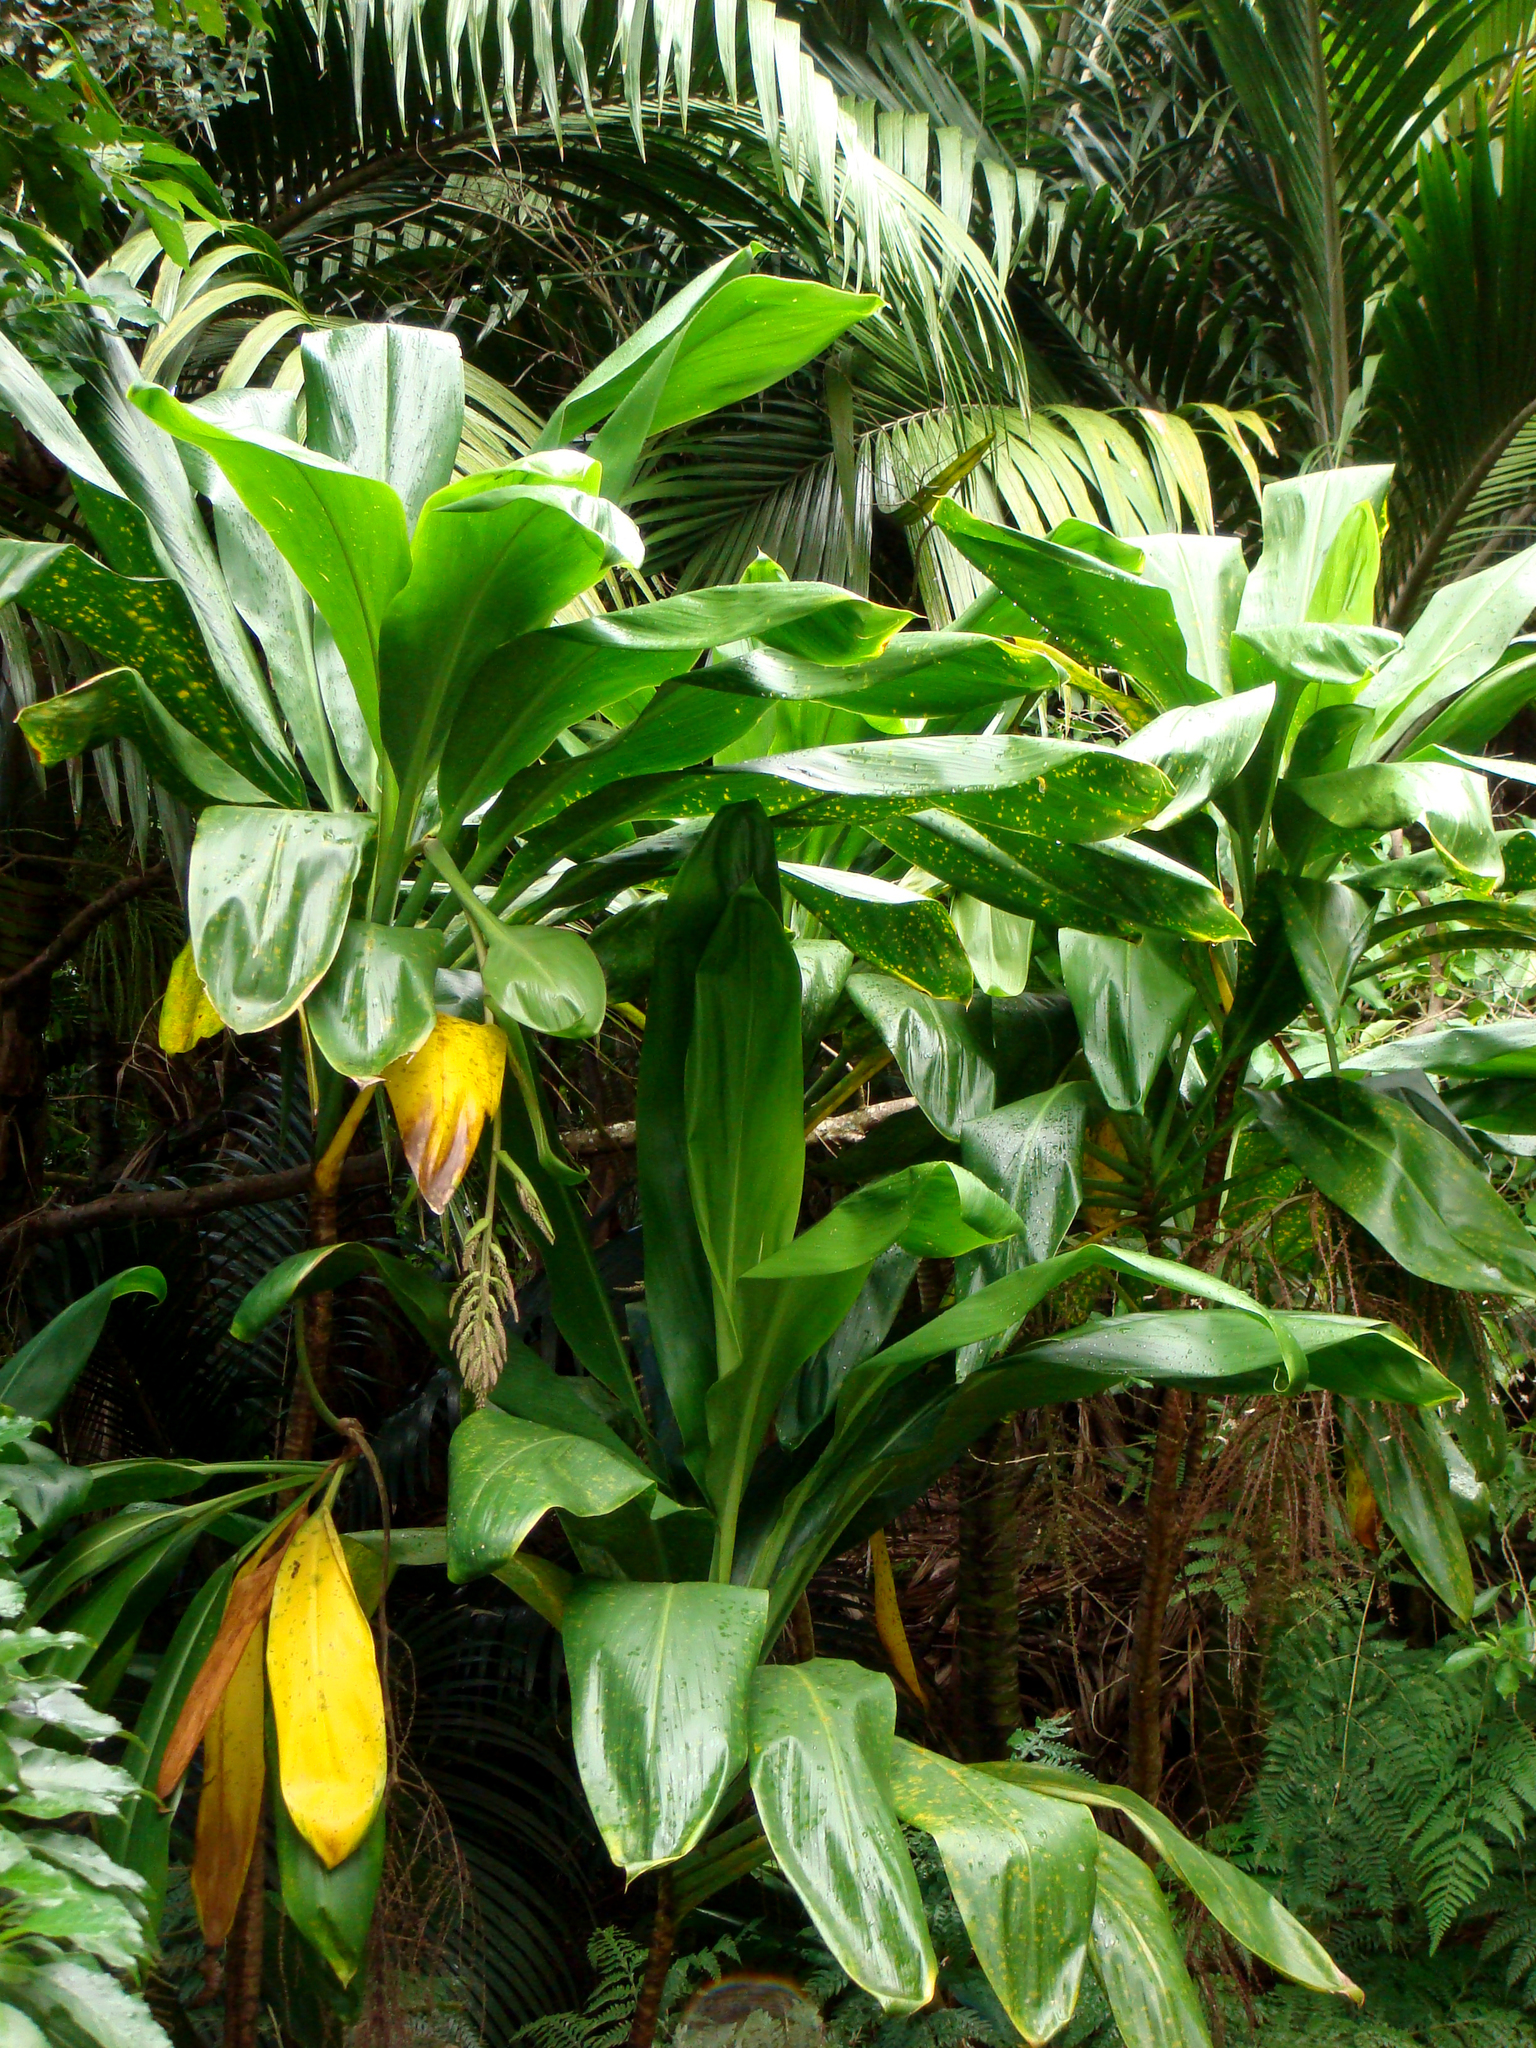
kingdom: Plantae
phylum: Tracheophyta
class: Liliopsida
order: Asparagales
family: Asparagaceae
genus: Cordyline
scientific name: Cordyline fruticosa
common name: Good-luck-plant
